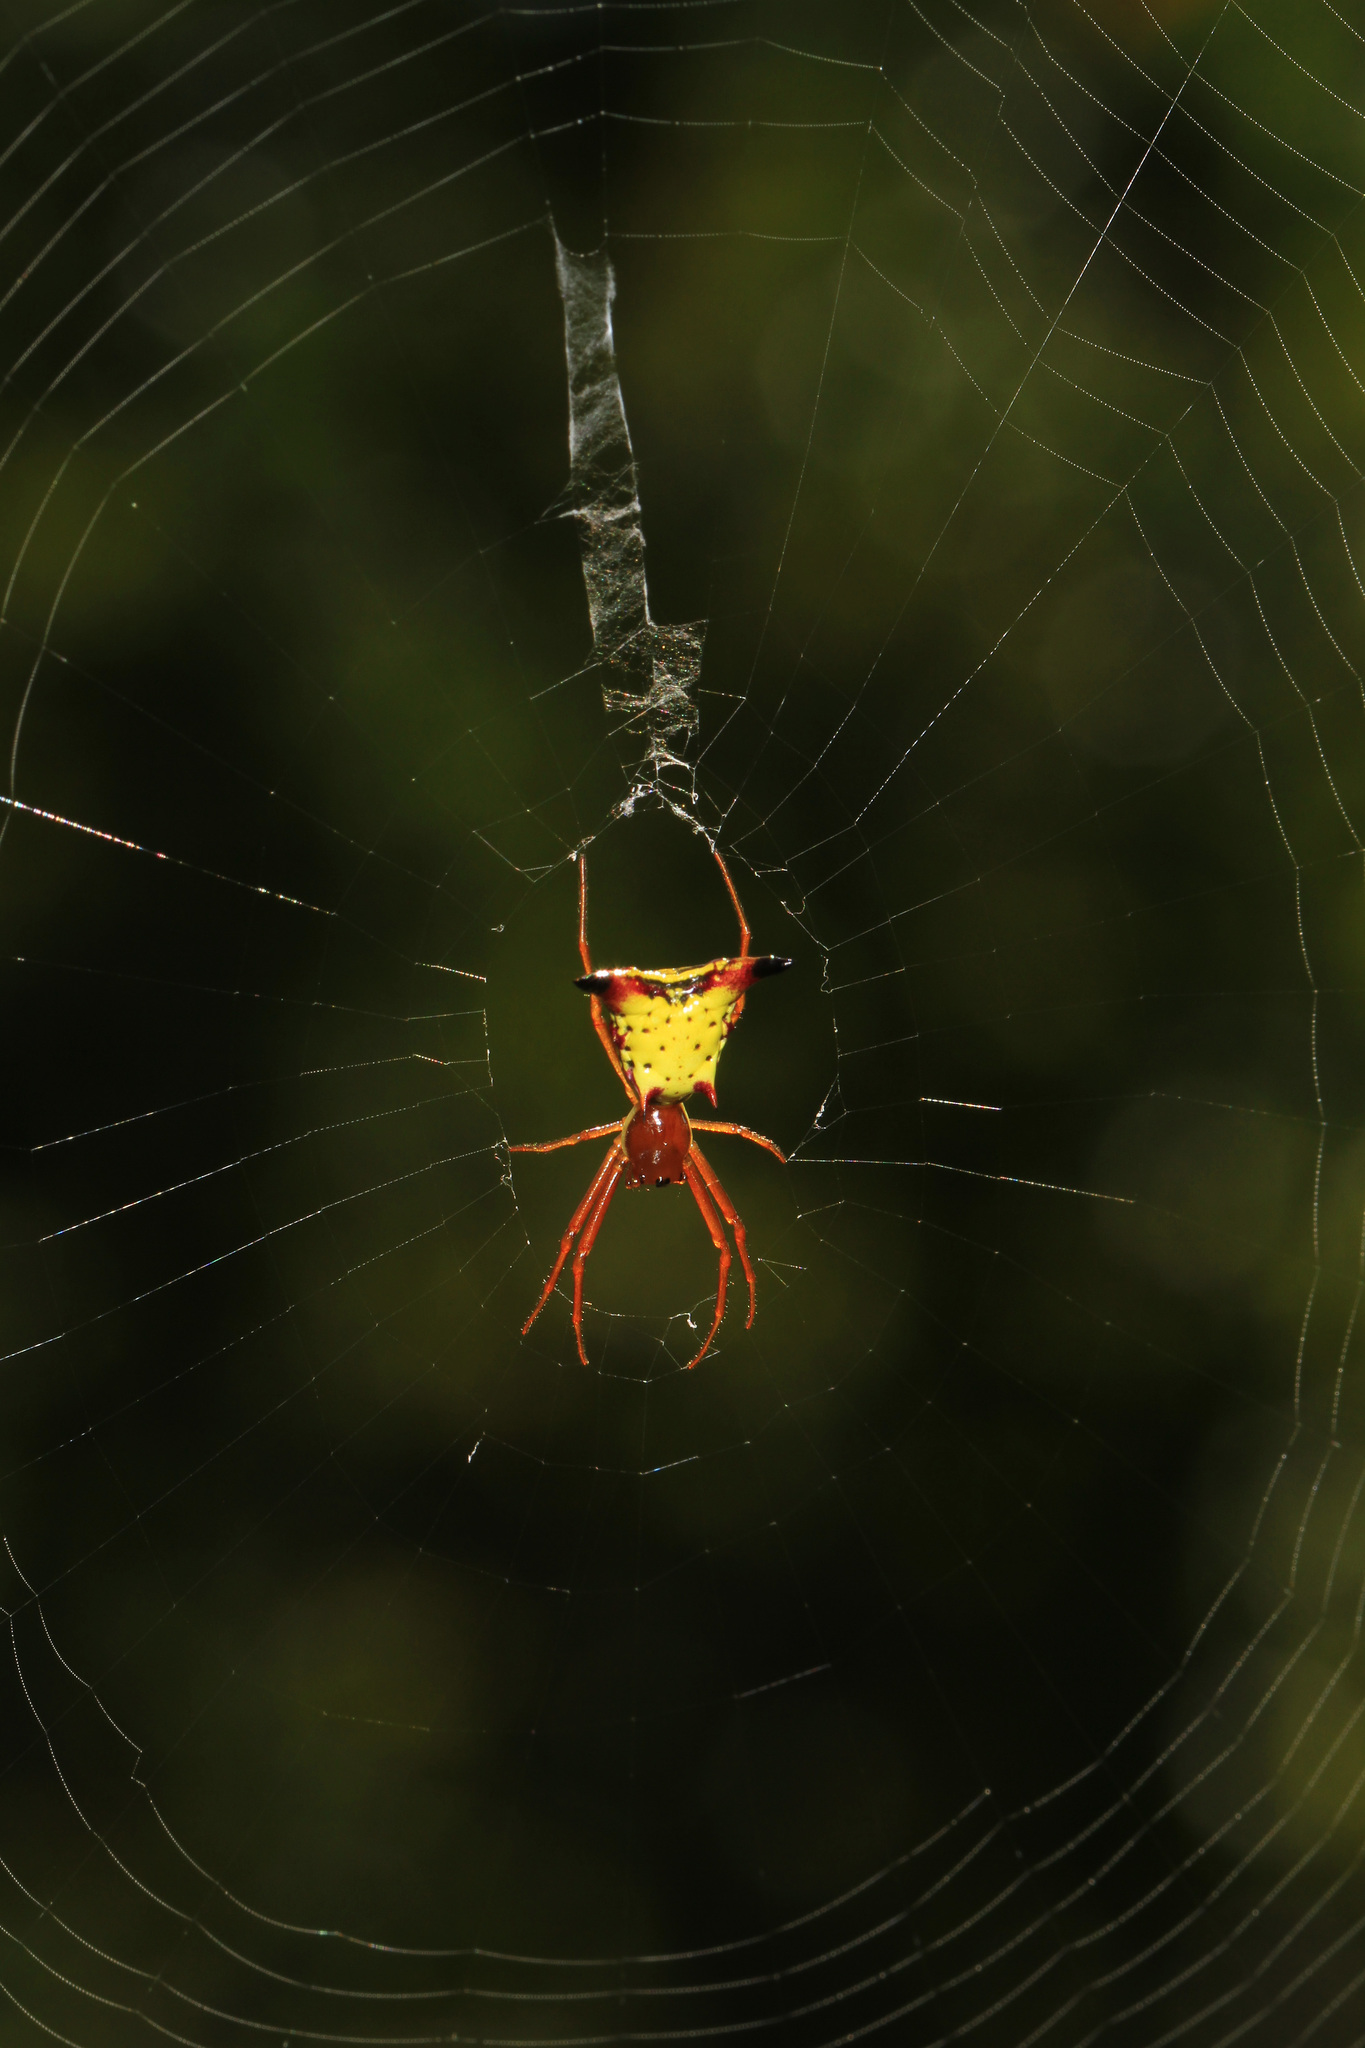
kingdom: Animalia
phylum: Arthropoda
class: Arachnida
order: Araneae
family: Araneidae
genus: Micrathena
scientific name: Micrathena sagittata
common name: Orb weavers
